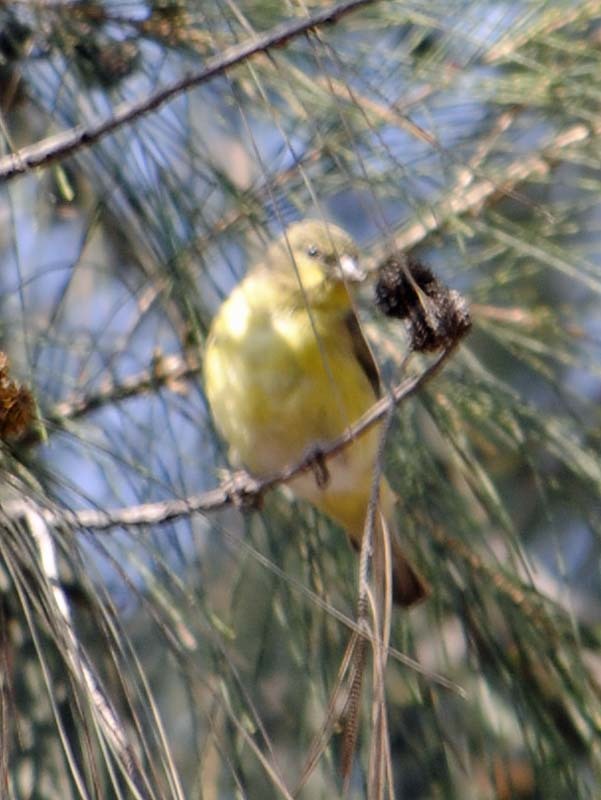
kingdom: Animalia
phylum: Chordata
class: Aves
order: Passeriformes
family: Fringillidae
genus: Spinus
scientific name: Spinus psaltria
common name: Lesser goldfinch
